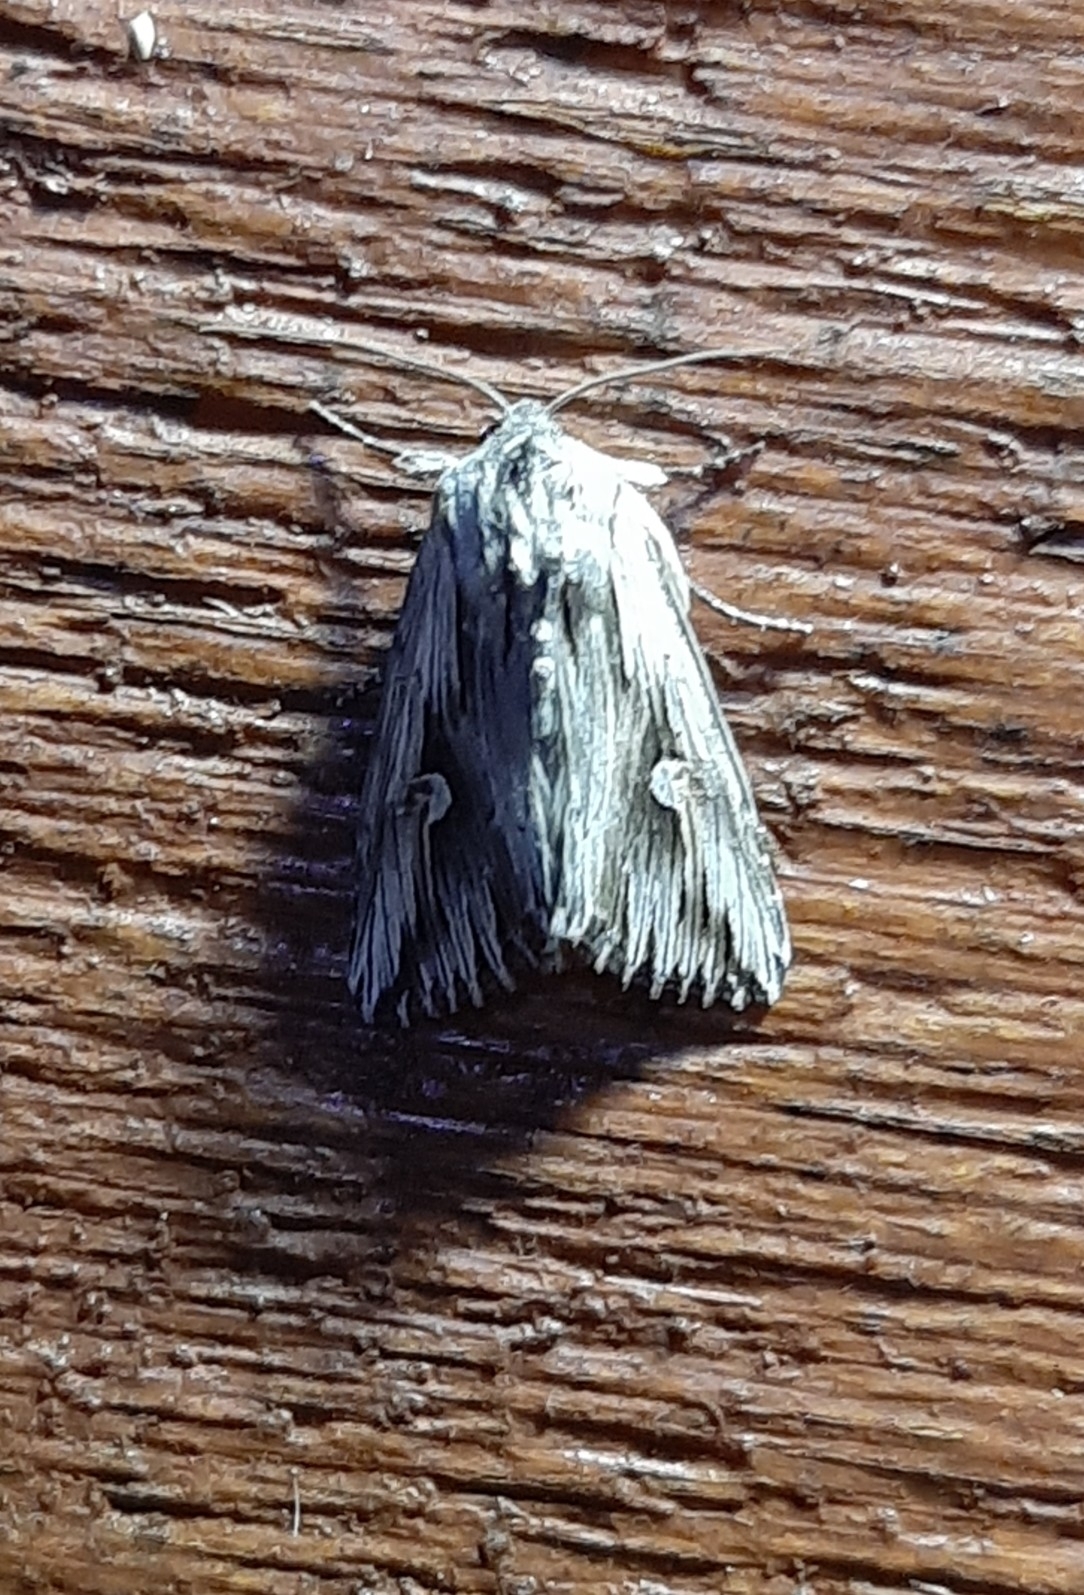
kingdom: Animalia
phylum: Arthropoda
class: Insecta
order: Lepidoptera
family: Noctuidae
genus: Nedra
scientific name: Nedra ramosula
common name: Gray half-spot
